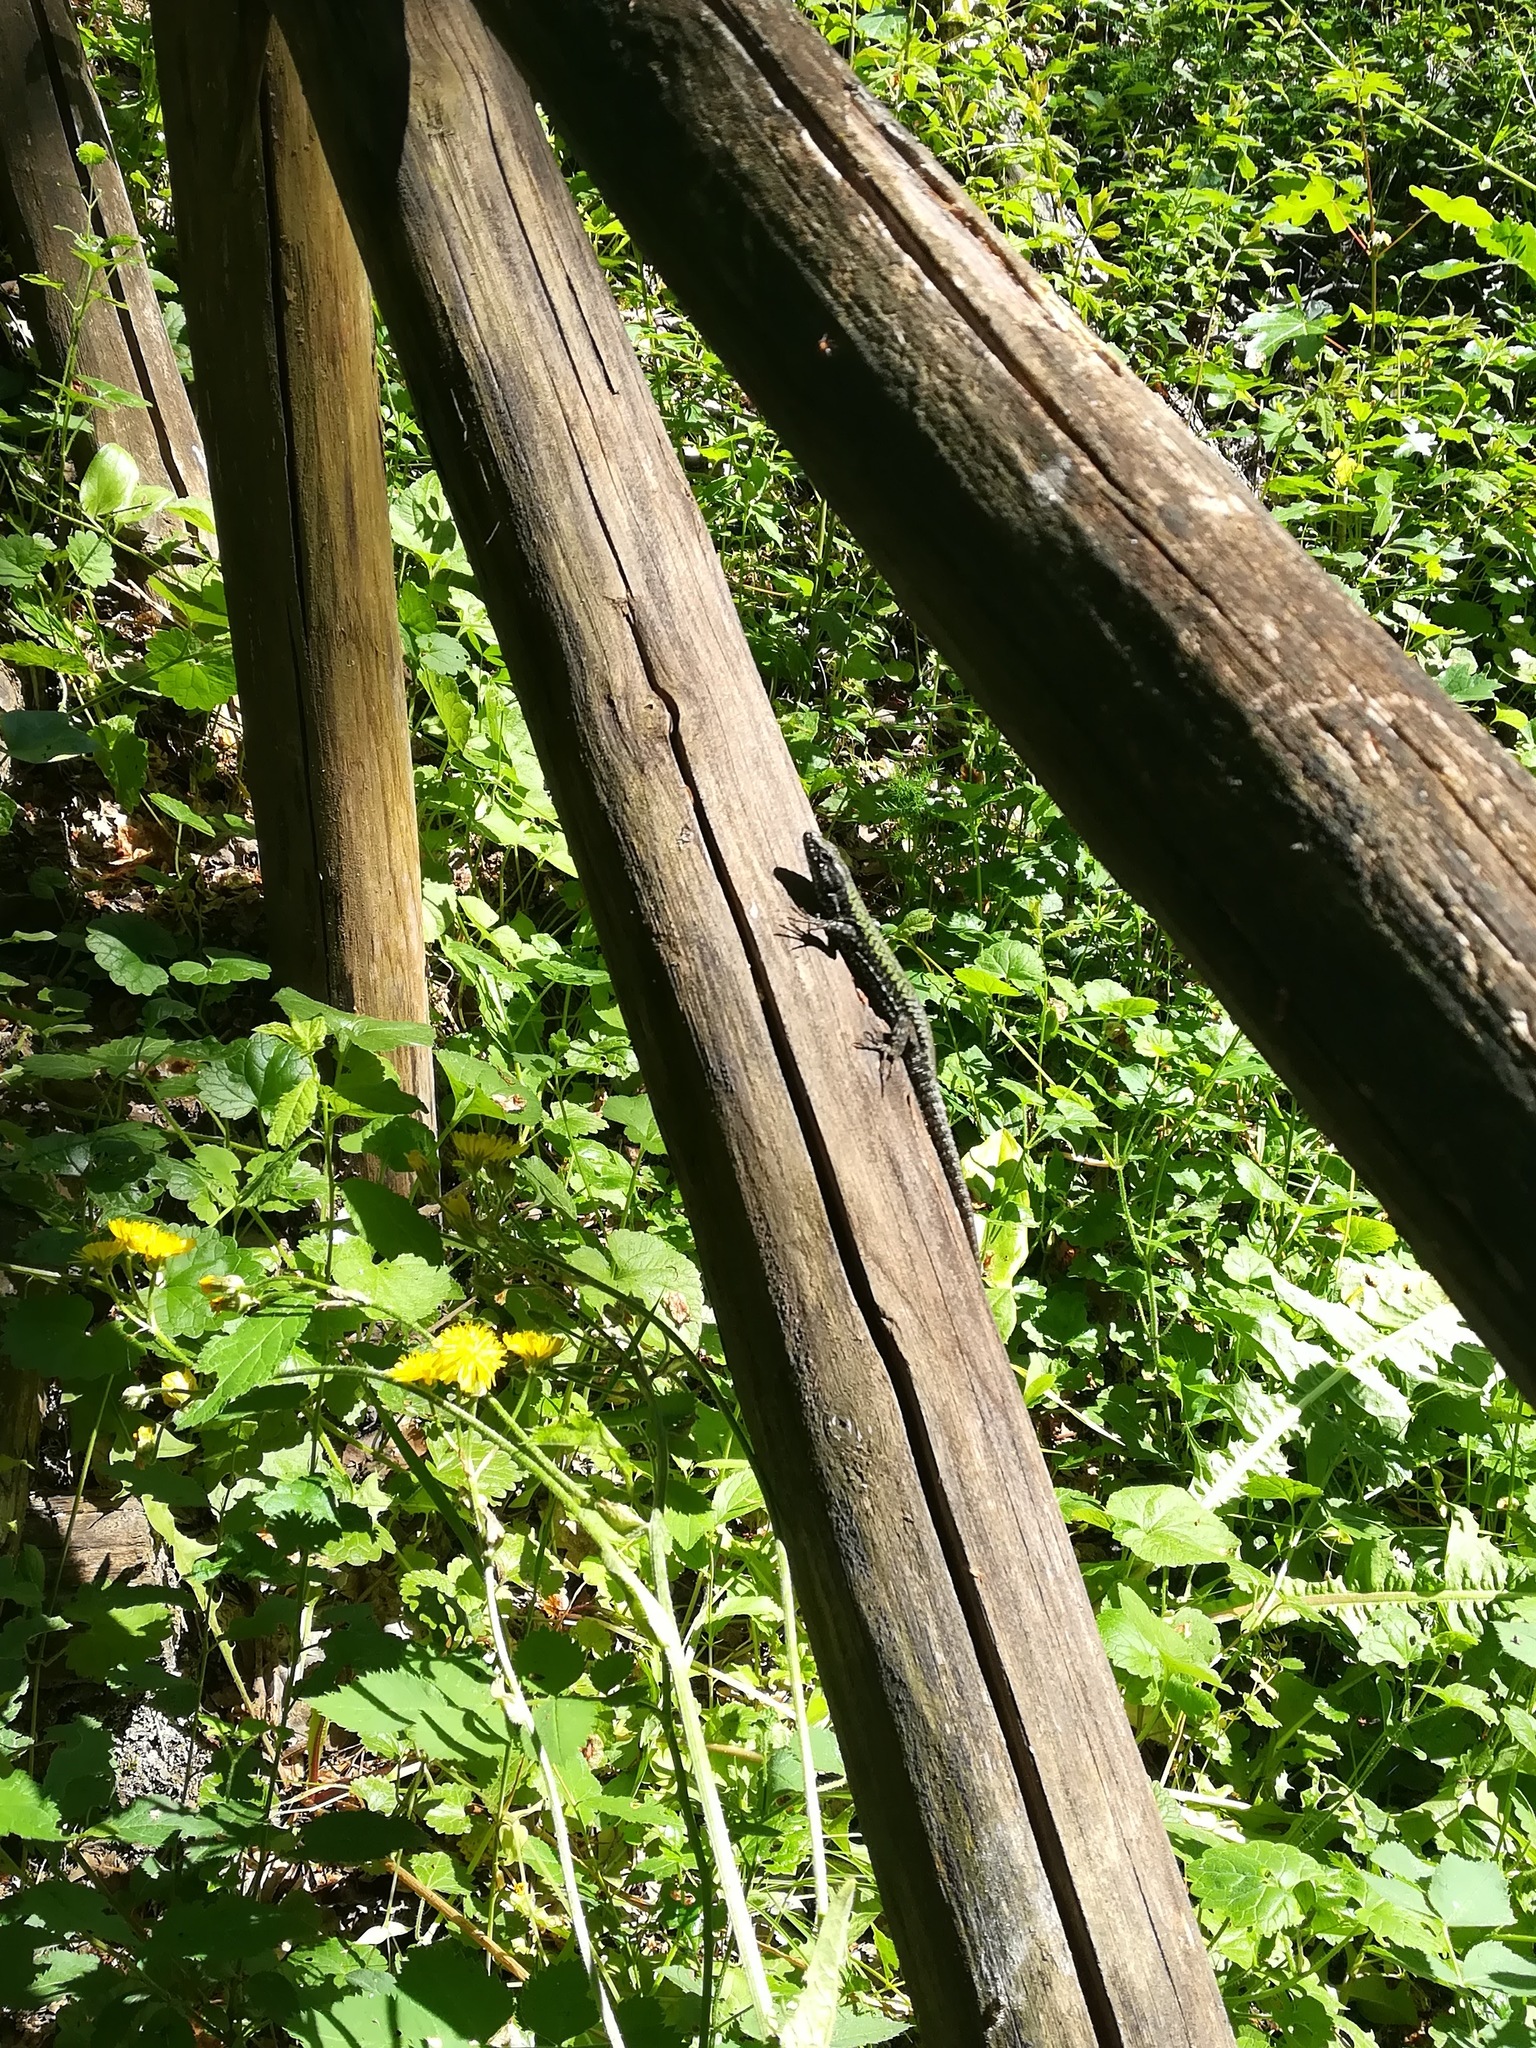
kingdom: Animalia
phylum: Chordata
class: Squamata
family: Lacertidae
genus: Podarcis
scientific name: Podarcis muralis
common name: Common wall lizard
